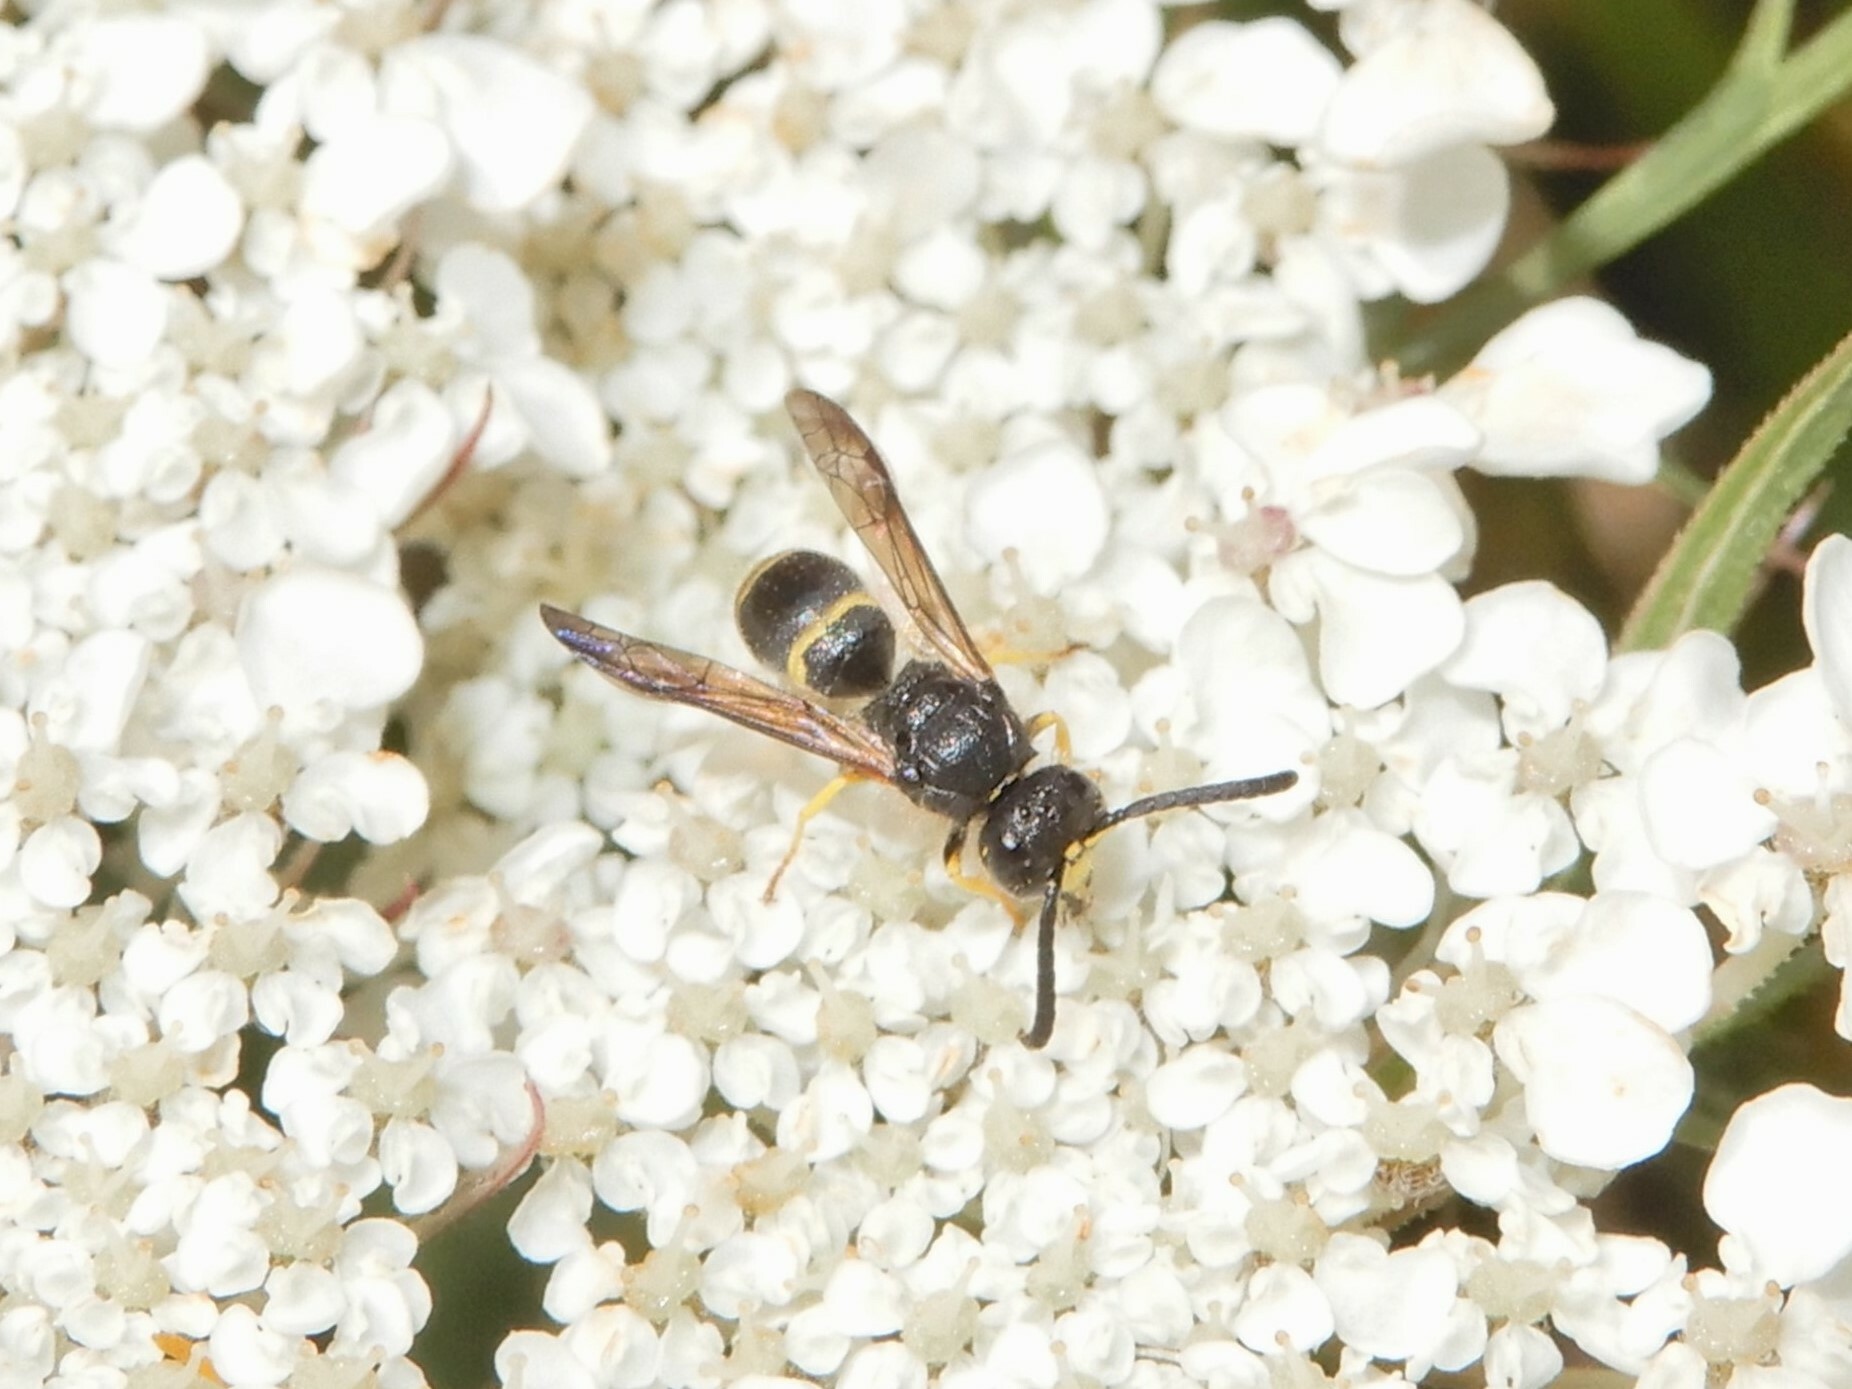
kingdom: Animalia
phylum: Arthropoda
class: Insecta
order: Hymenoptera
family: Vespidae
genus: Ancistrocerus
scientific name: Ancistrocerus gazella
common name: European tube wasp
